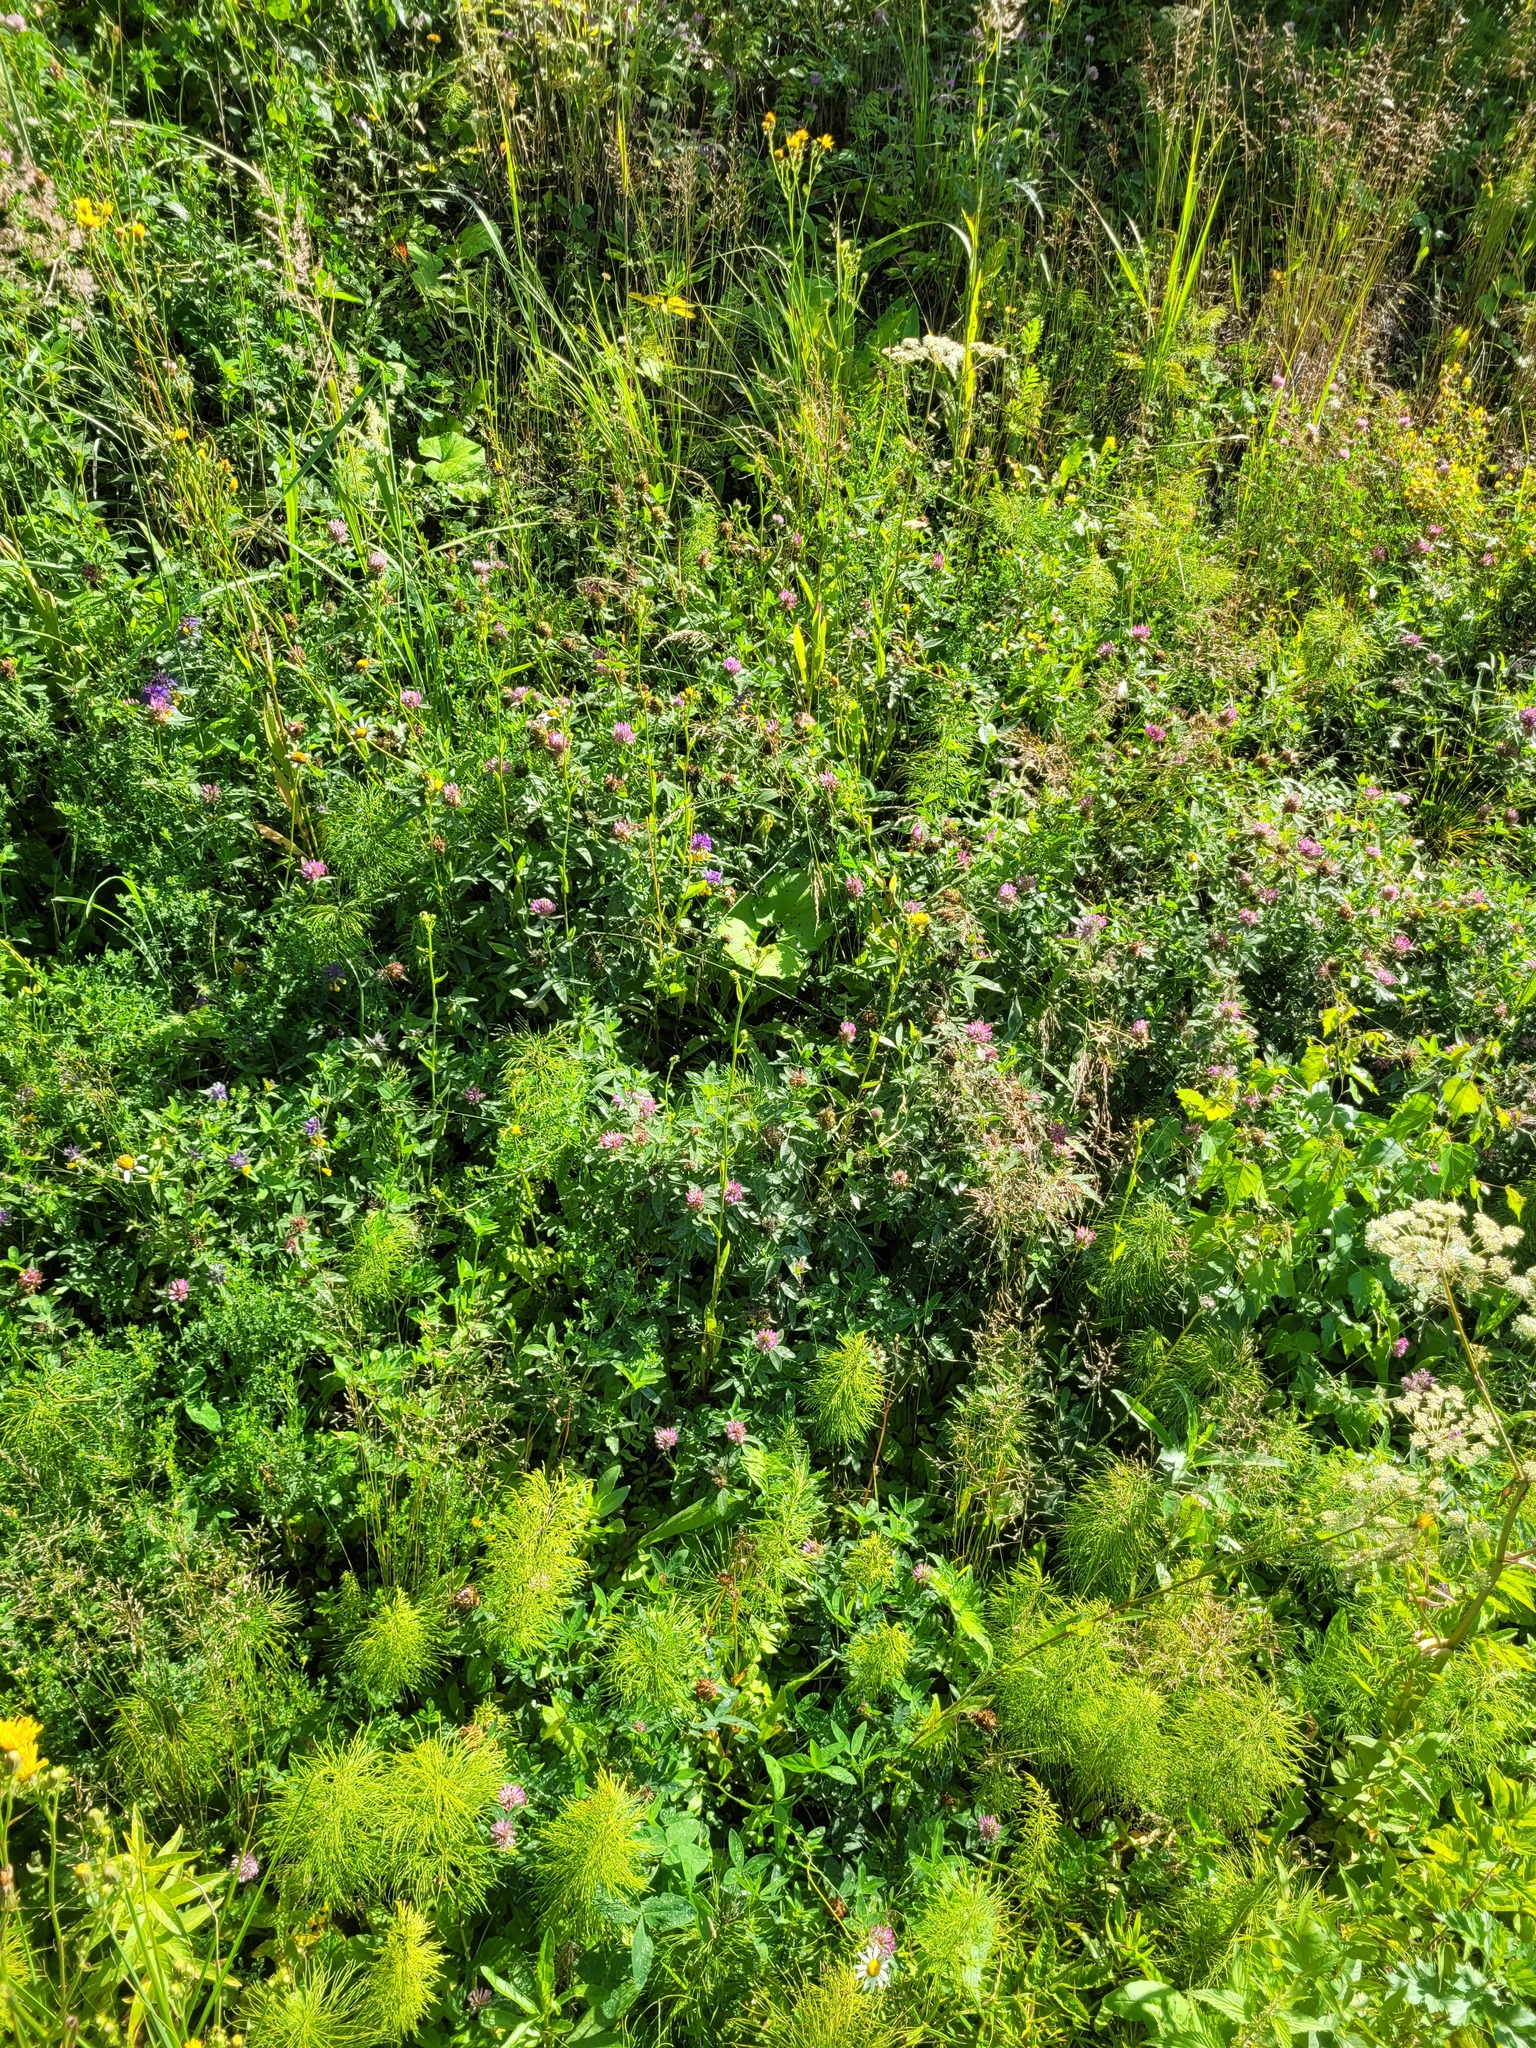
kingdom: Plantae
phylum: Tracheophyta
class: Magnoliopsida
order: Fabales
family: Fabaceae
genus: Trifolium
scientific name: Trifolium medium
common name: Zigzag clover
